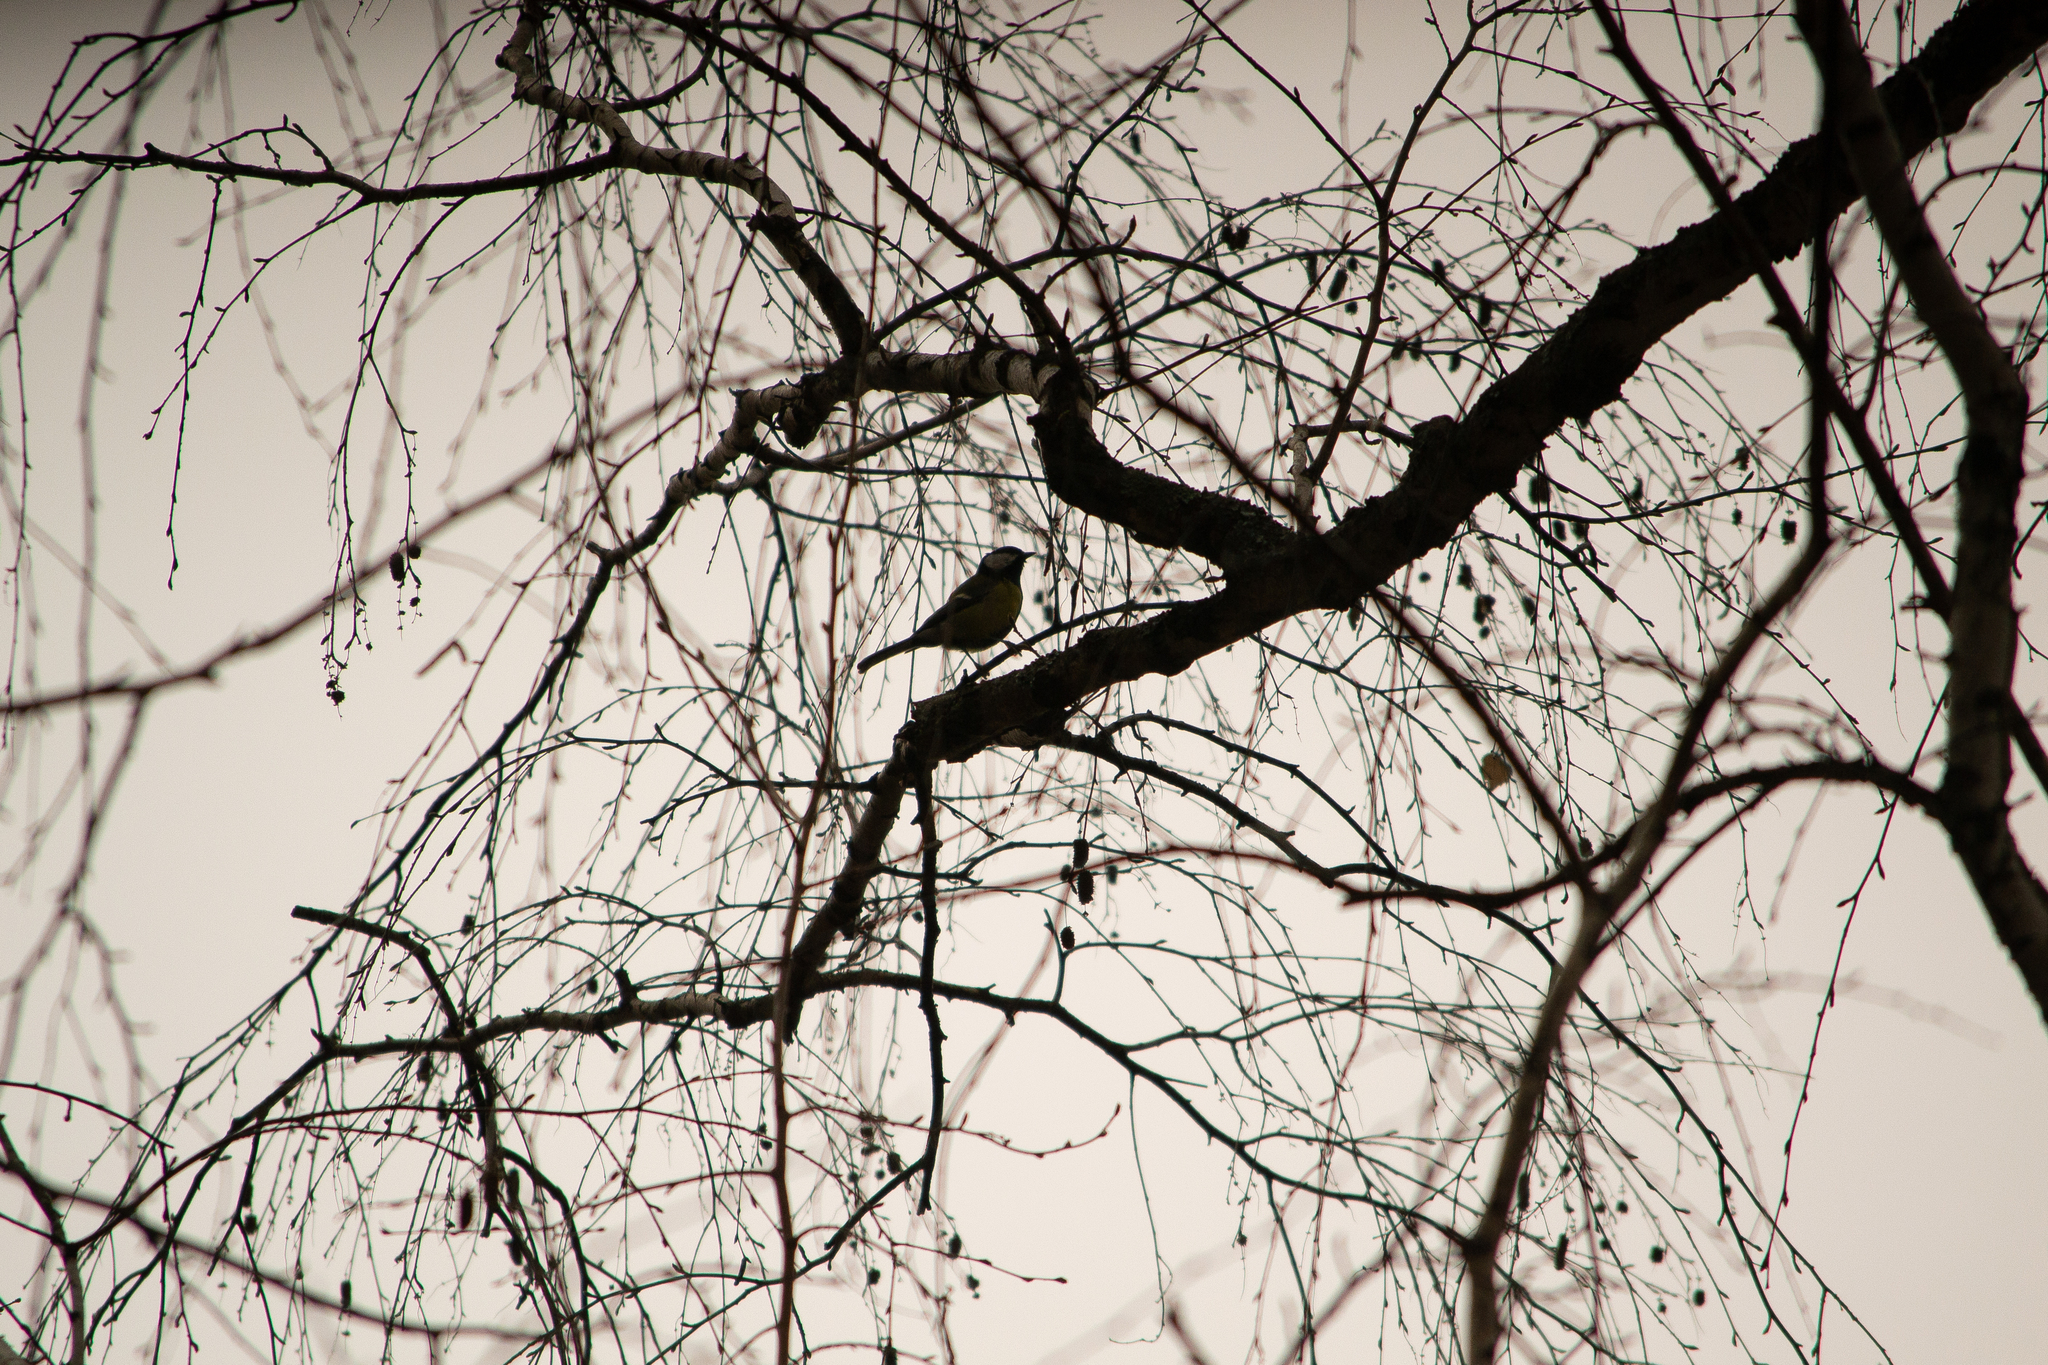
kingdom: Animalia
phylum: Chordata
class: Aves
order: Passeriformes
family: Paridae
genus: Parus
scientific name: Parus major
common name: Great tit
